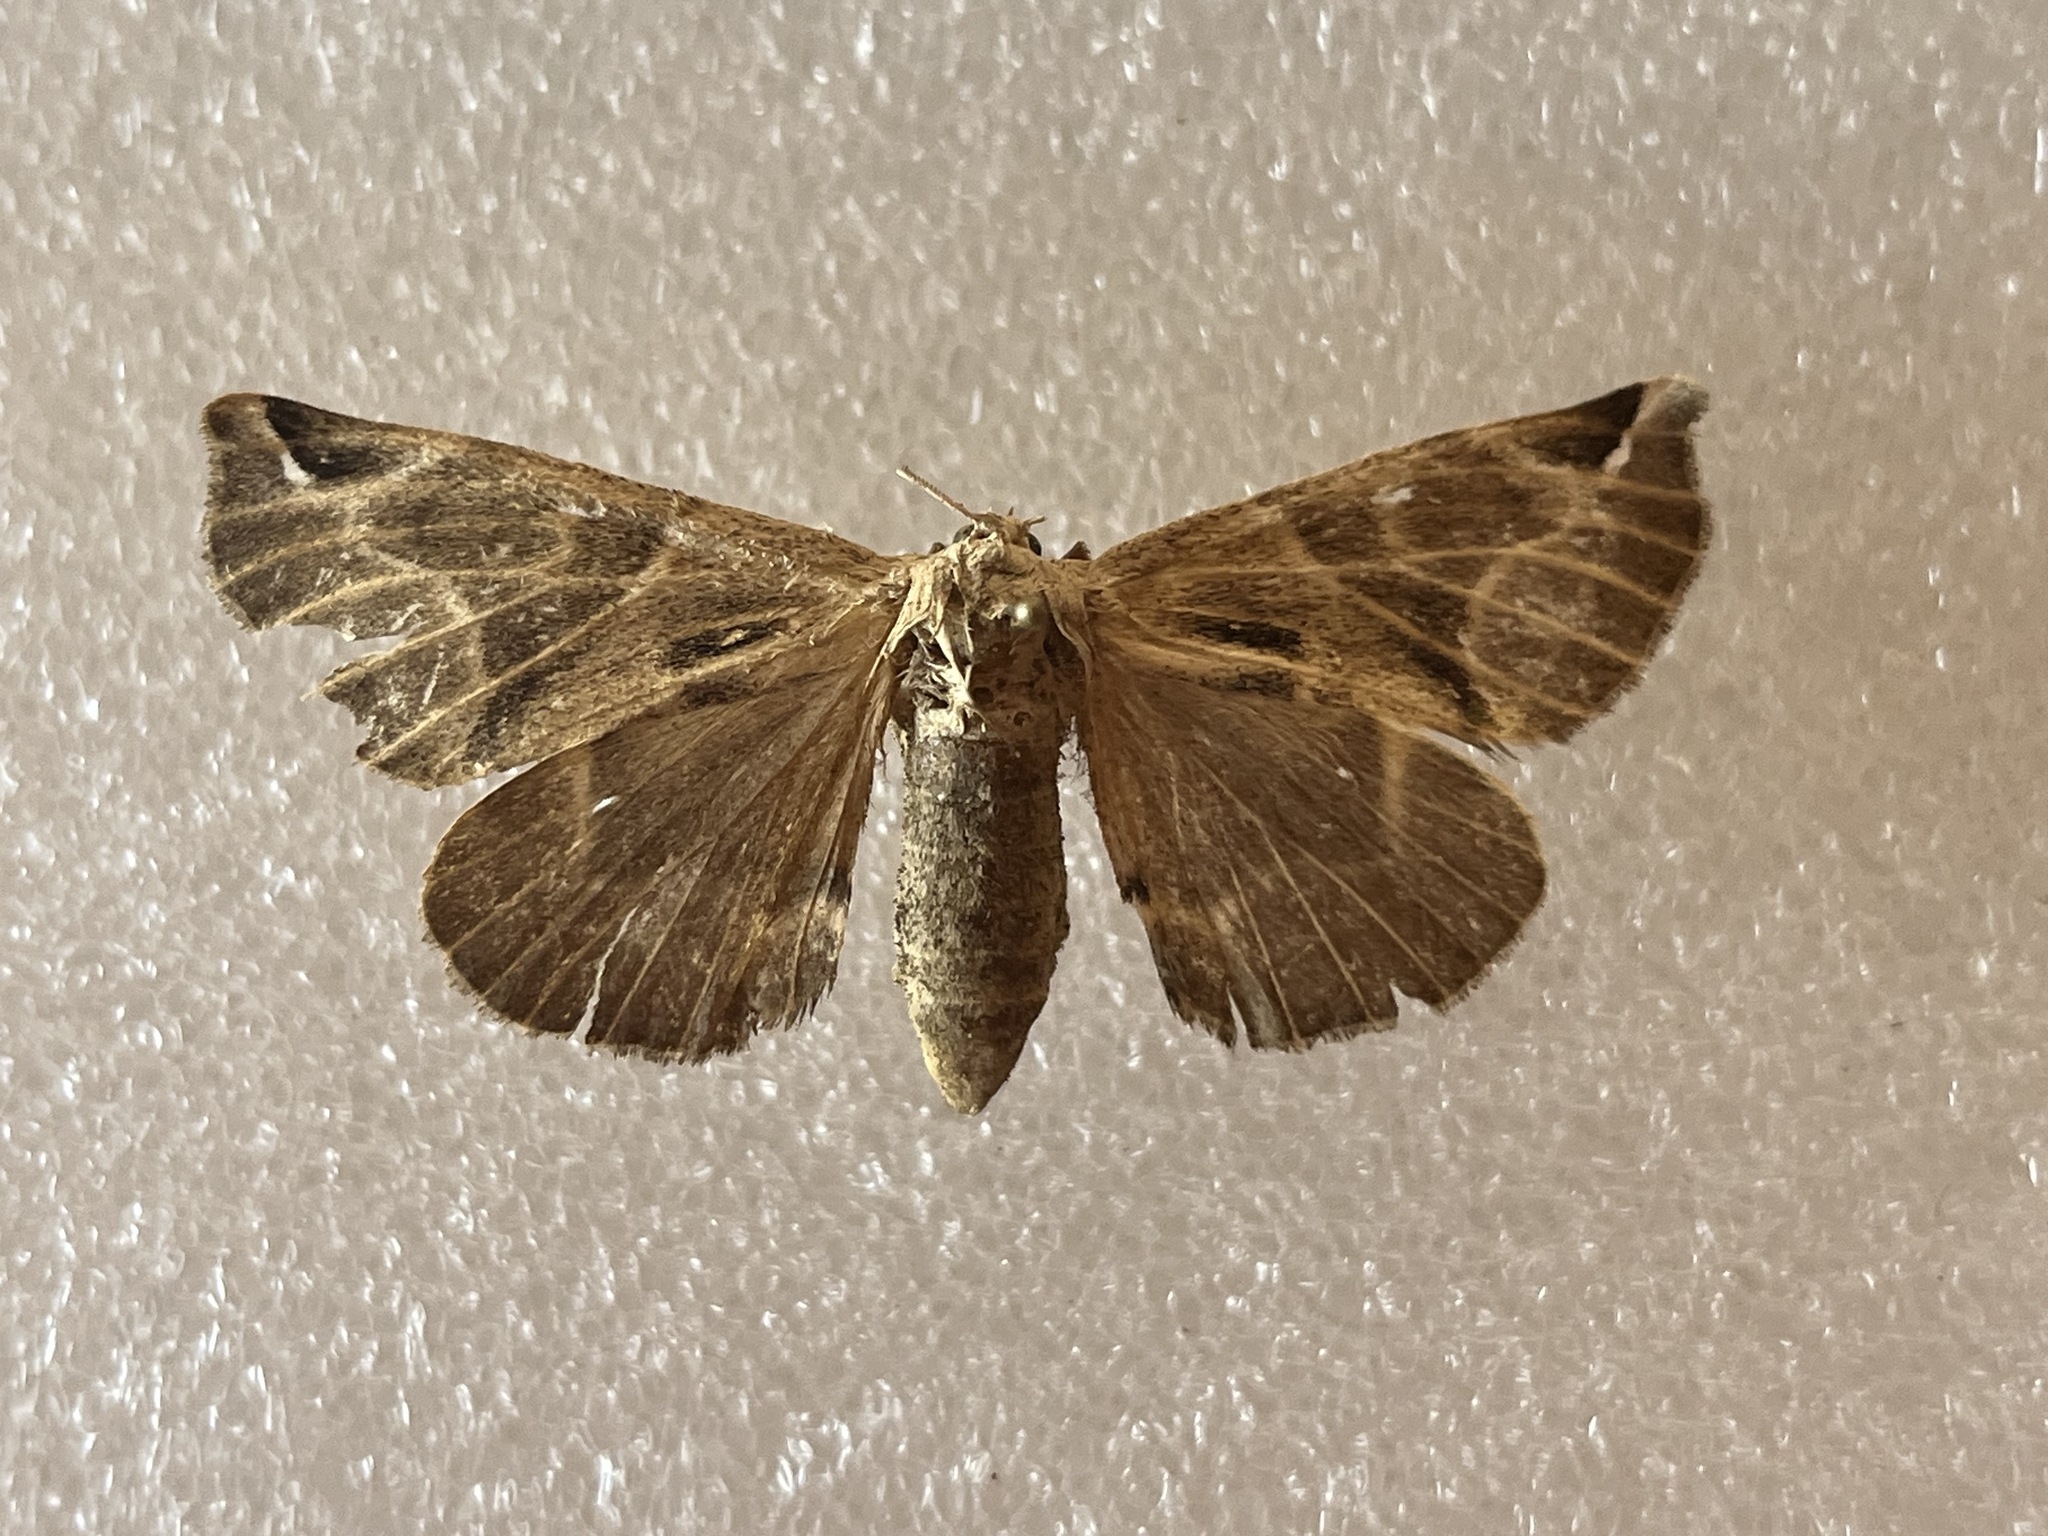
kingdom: Animalia
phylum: Arthropoda
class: Insecta
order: Lepidoptera
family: Apatelodidae
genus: Hygrochroa
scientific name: Hygrochroa
